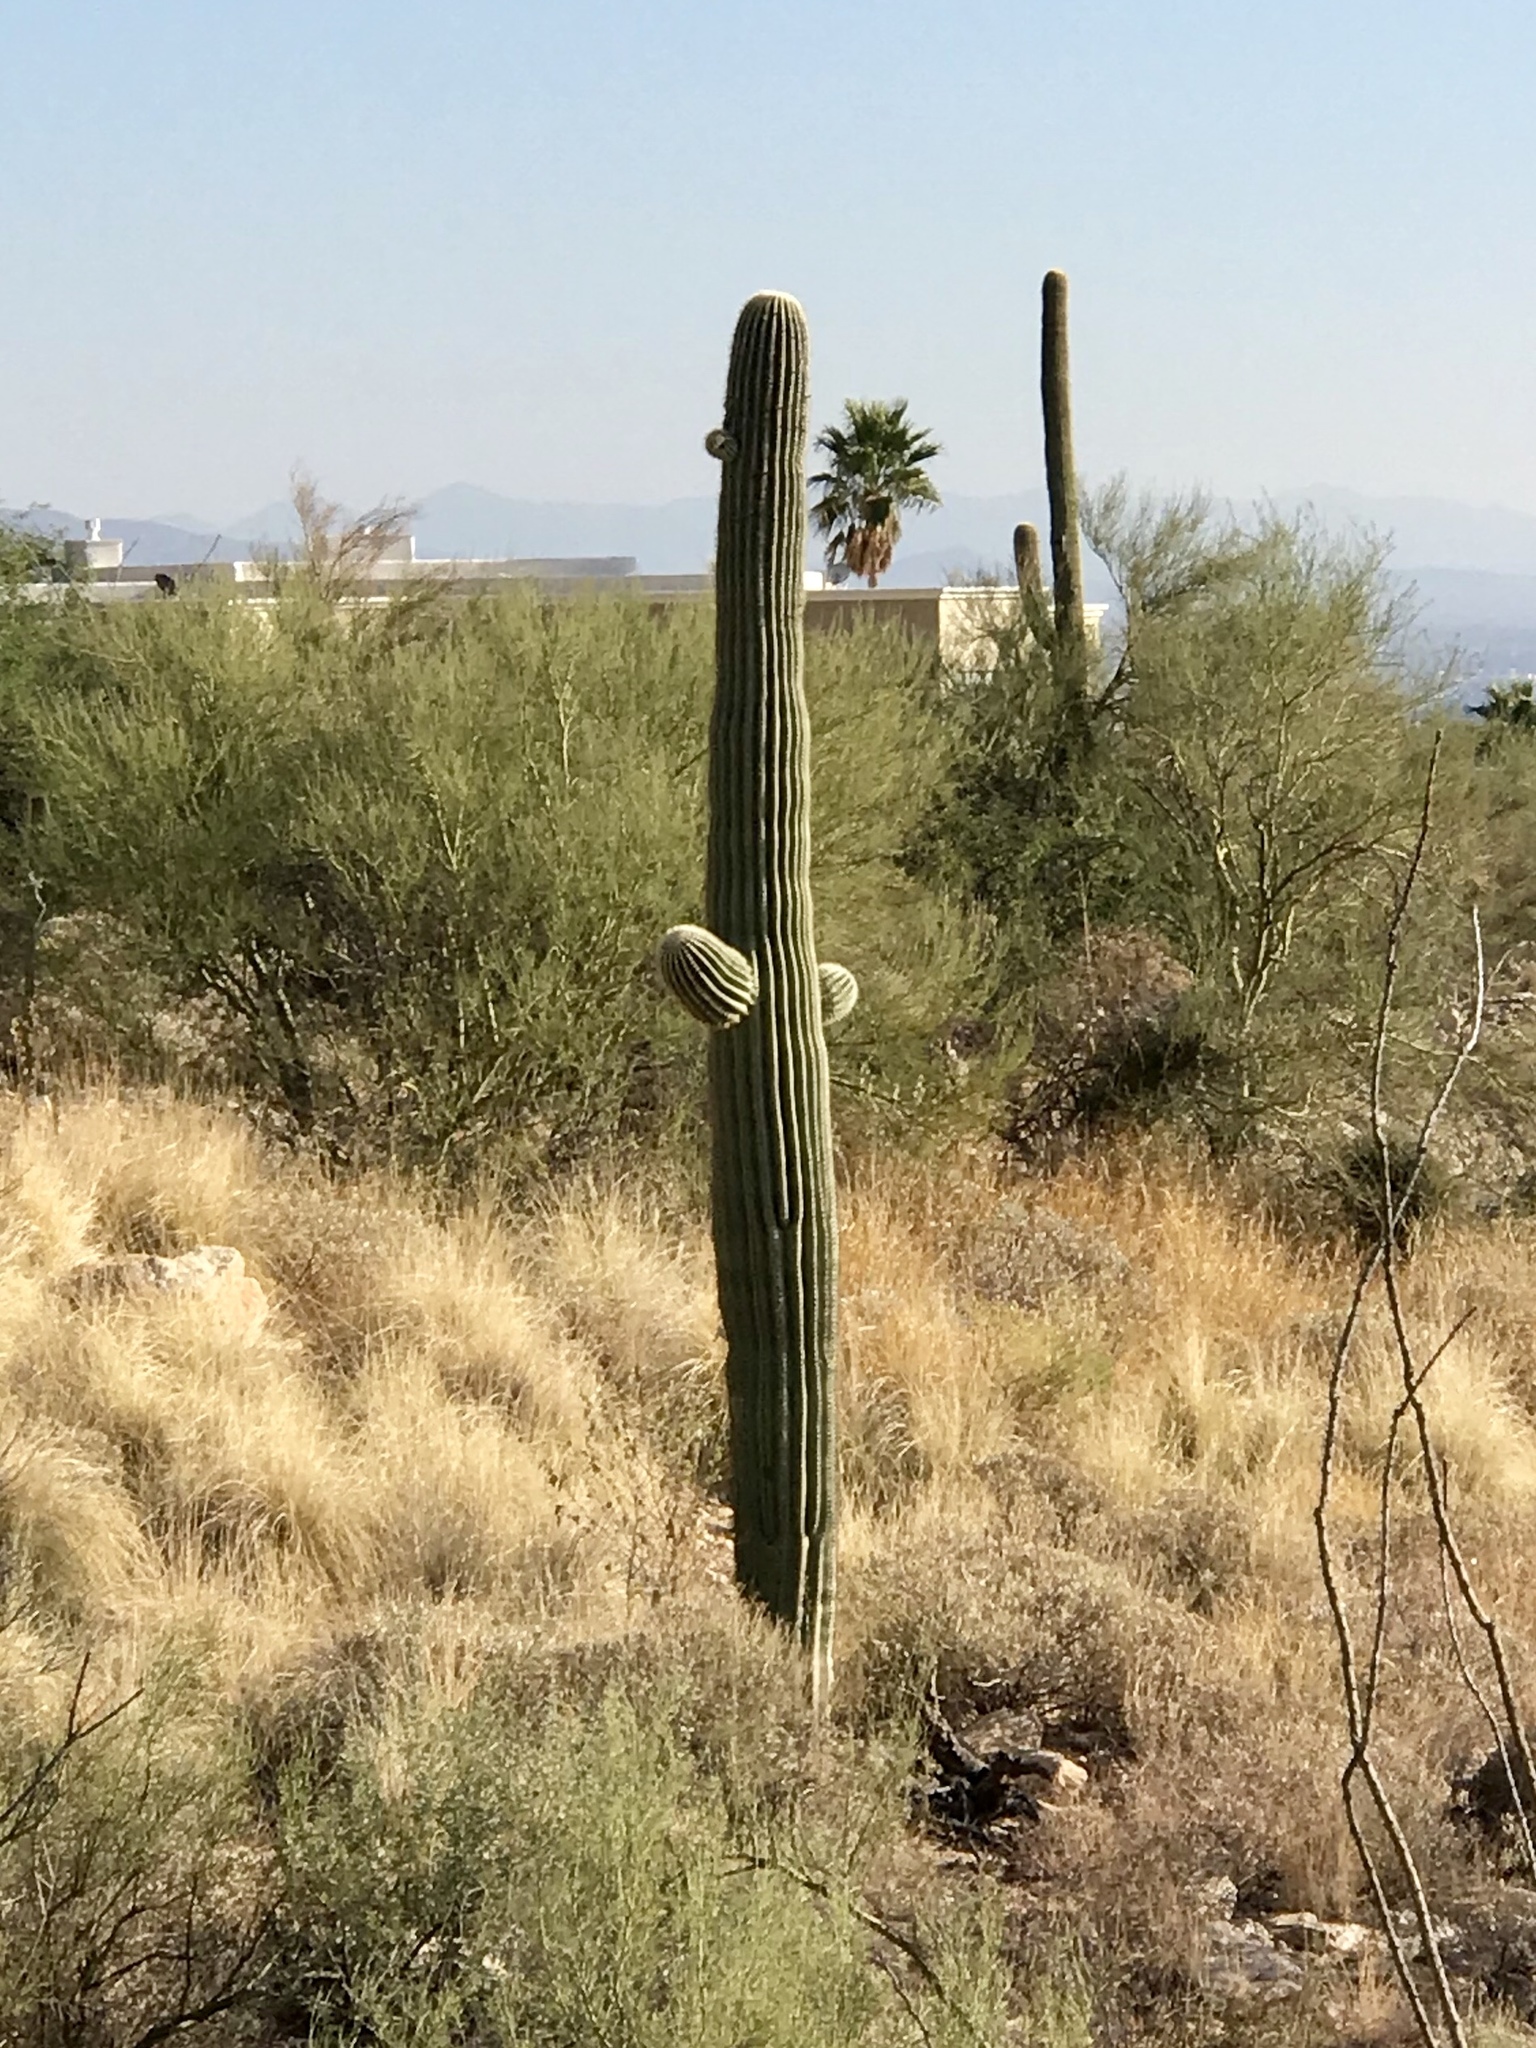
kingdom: Plantae
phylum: Tracheophyta
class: Magnoliopsida
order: Caryophyllales
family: Cactaceae
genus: Carnegiea
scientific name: Carnegiea gigantea
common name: Saguaro
